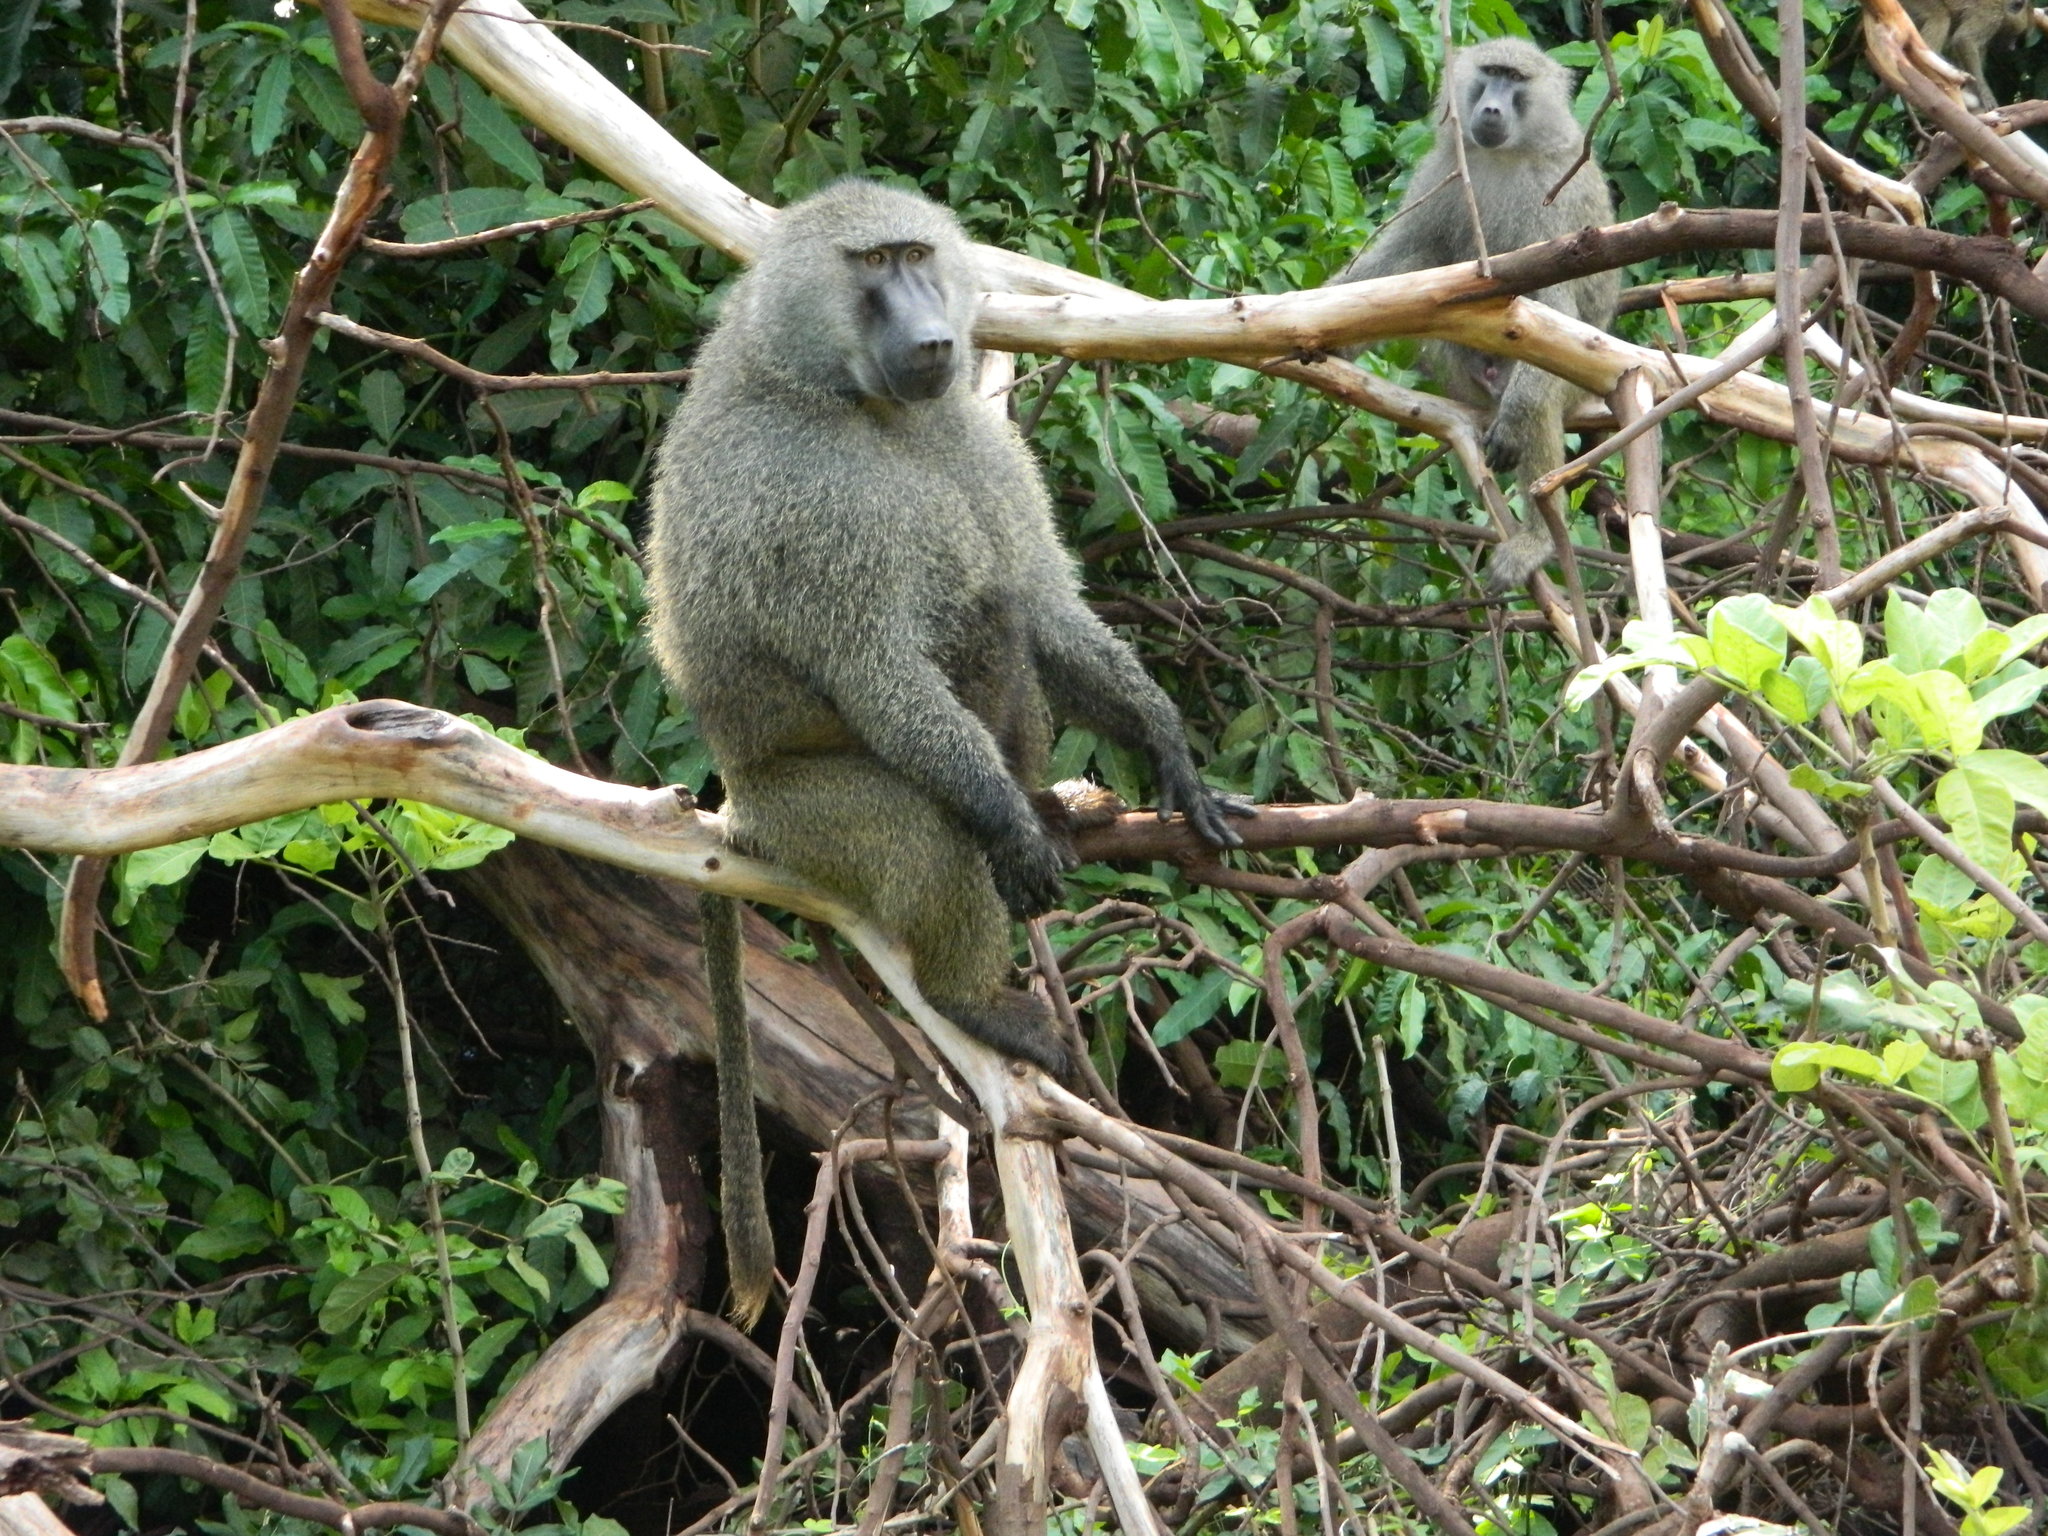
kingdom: Animalia
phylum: Chordata
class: Mammalia
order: Primates
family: Cercopithecidae
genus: Papio
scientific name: Papio anubis
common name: Olive baboon
